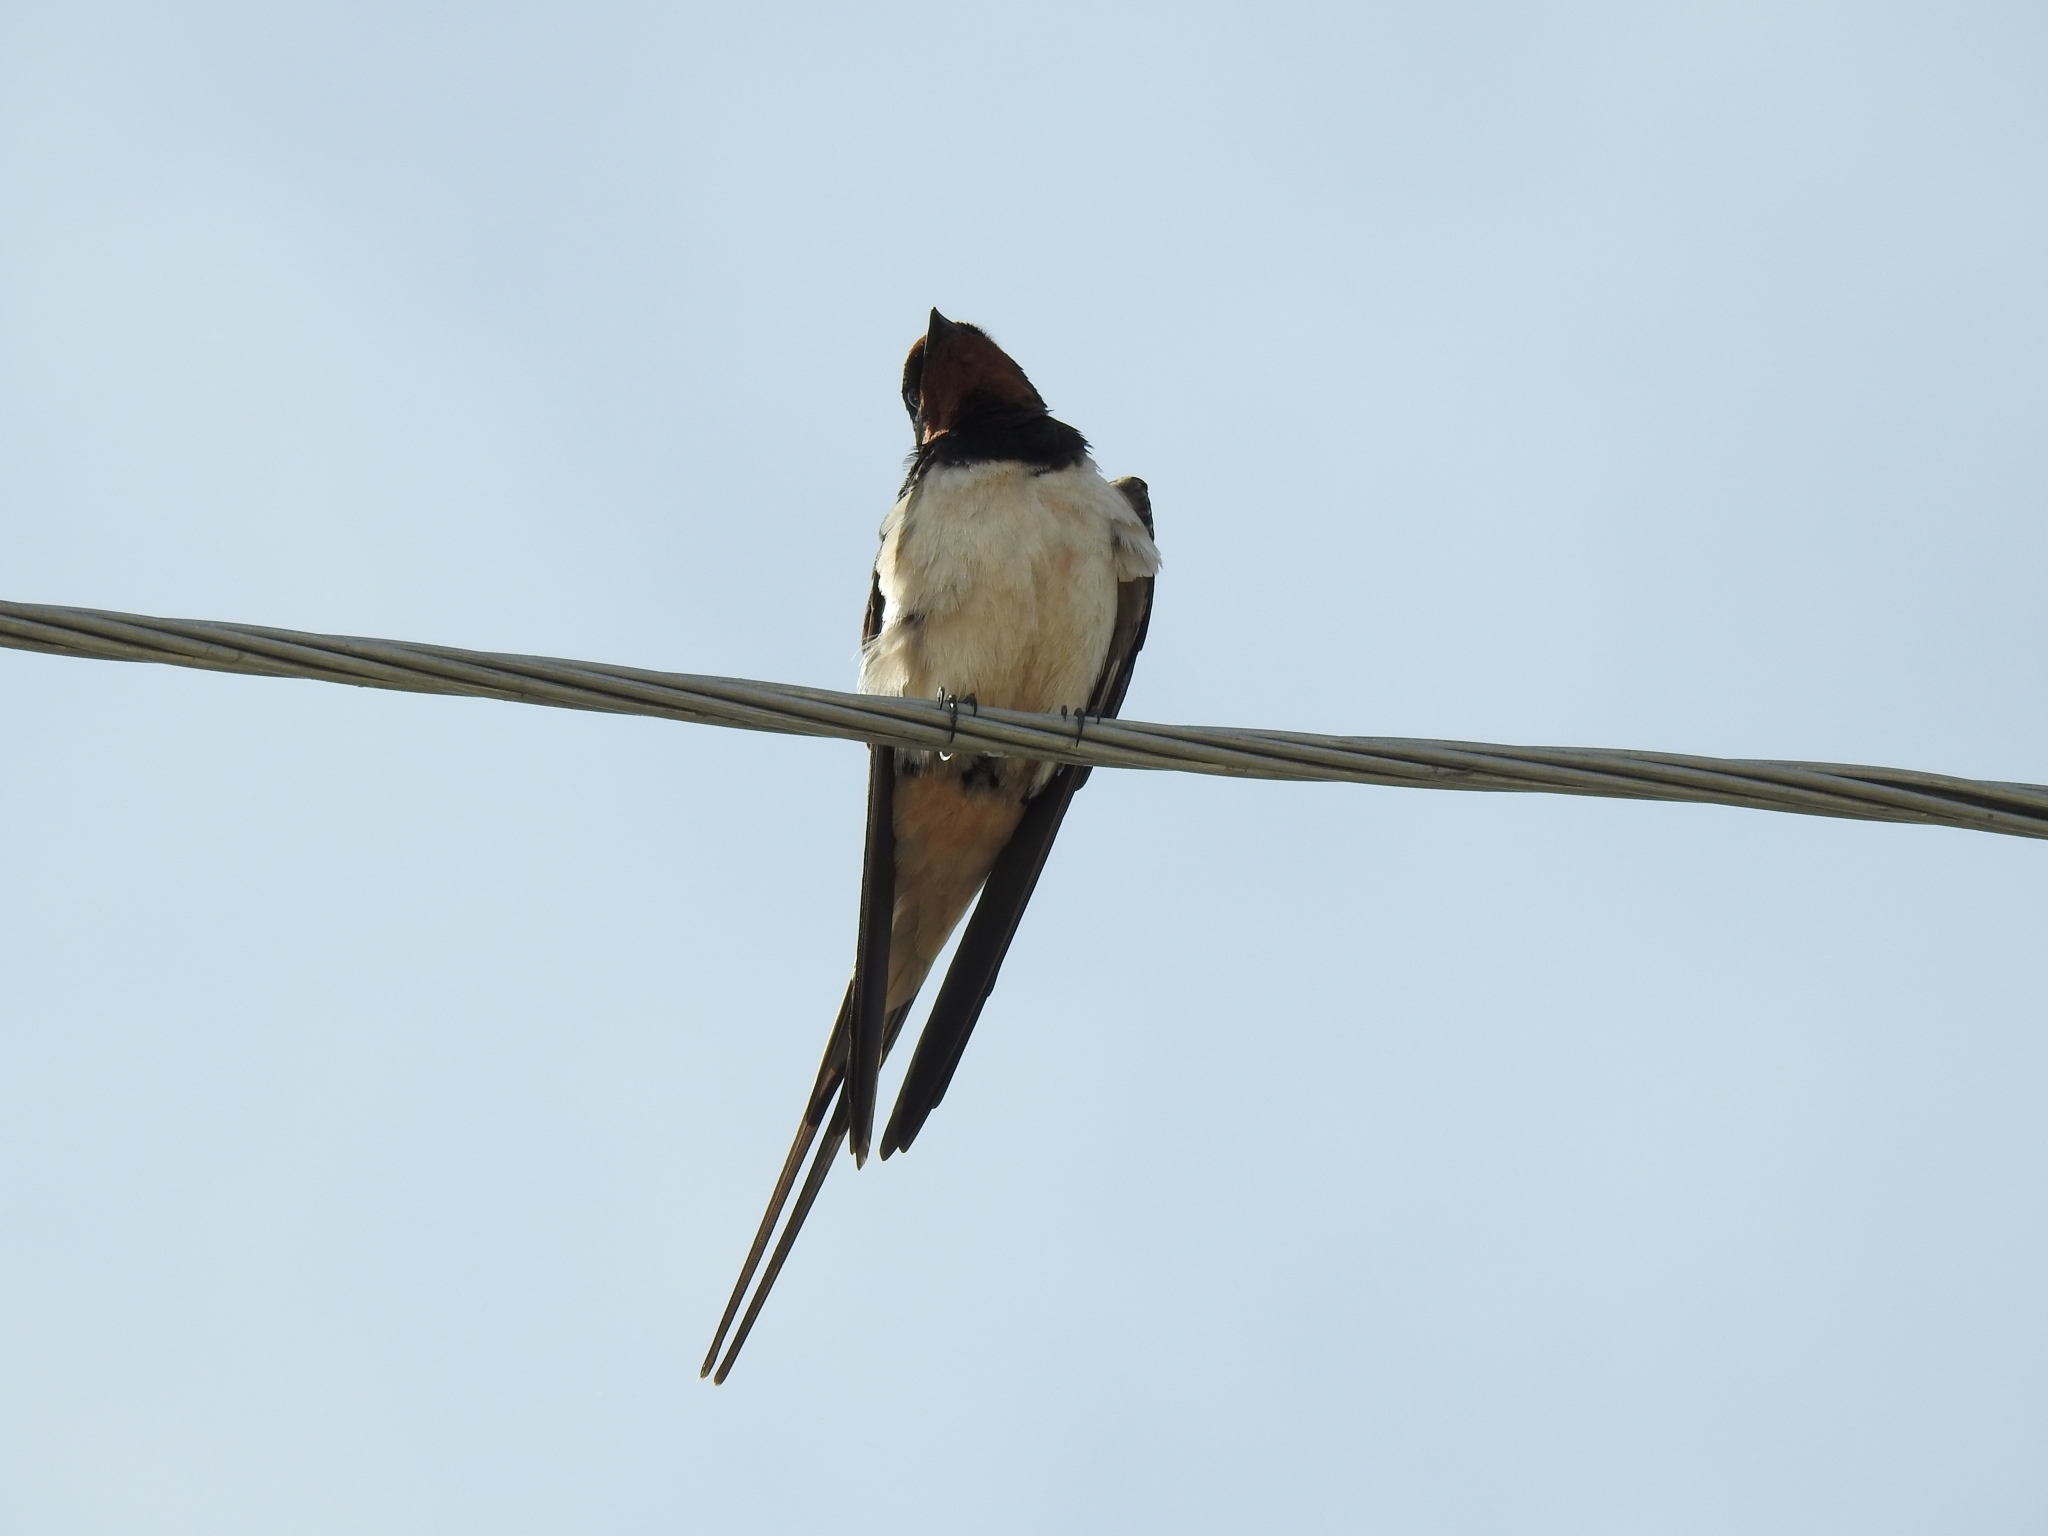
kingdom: Animalia
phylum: Chordata
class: Aves
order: Passeriformes
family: Hirundinidae
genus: Hirundo
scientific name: Hirundo rustica
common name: Barn swallow
